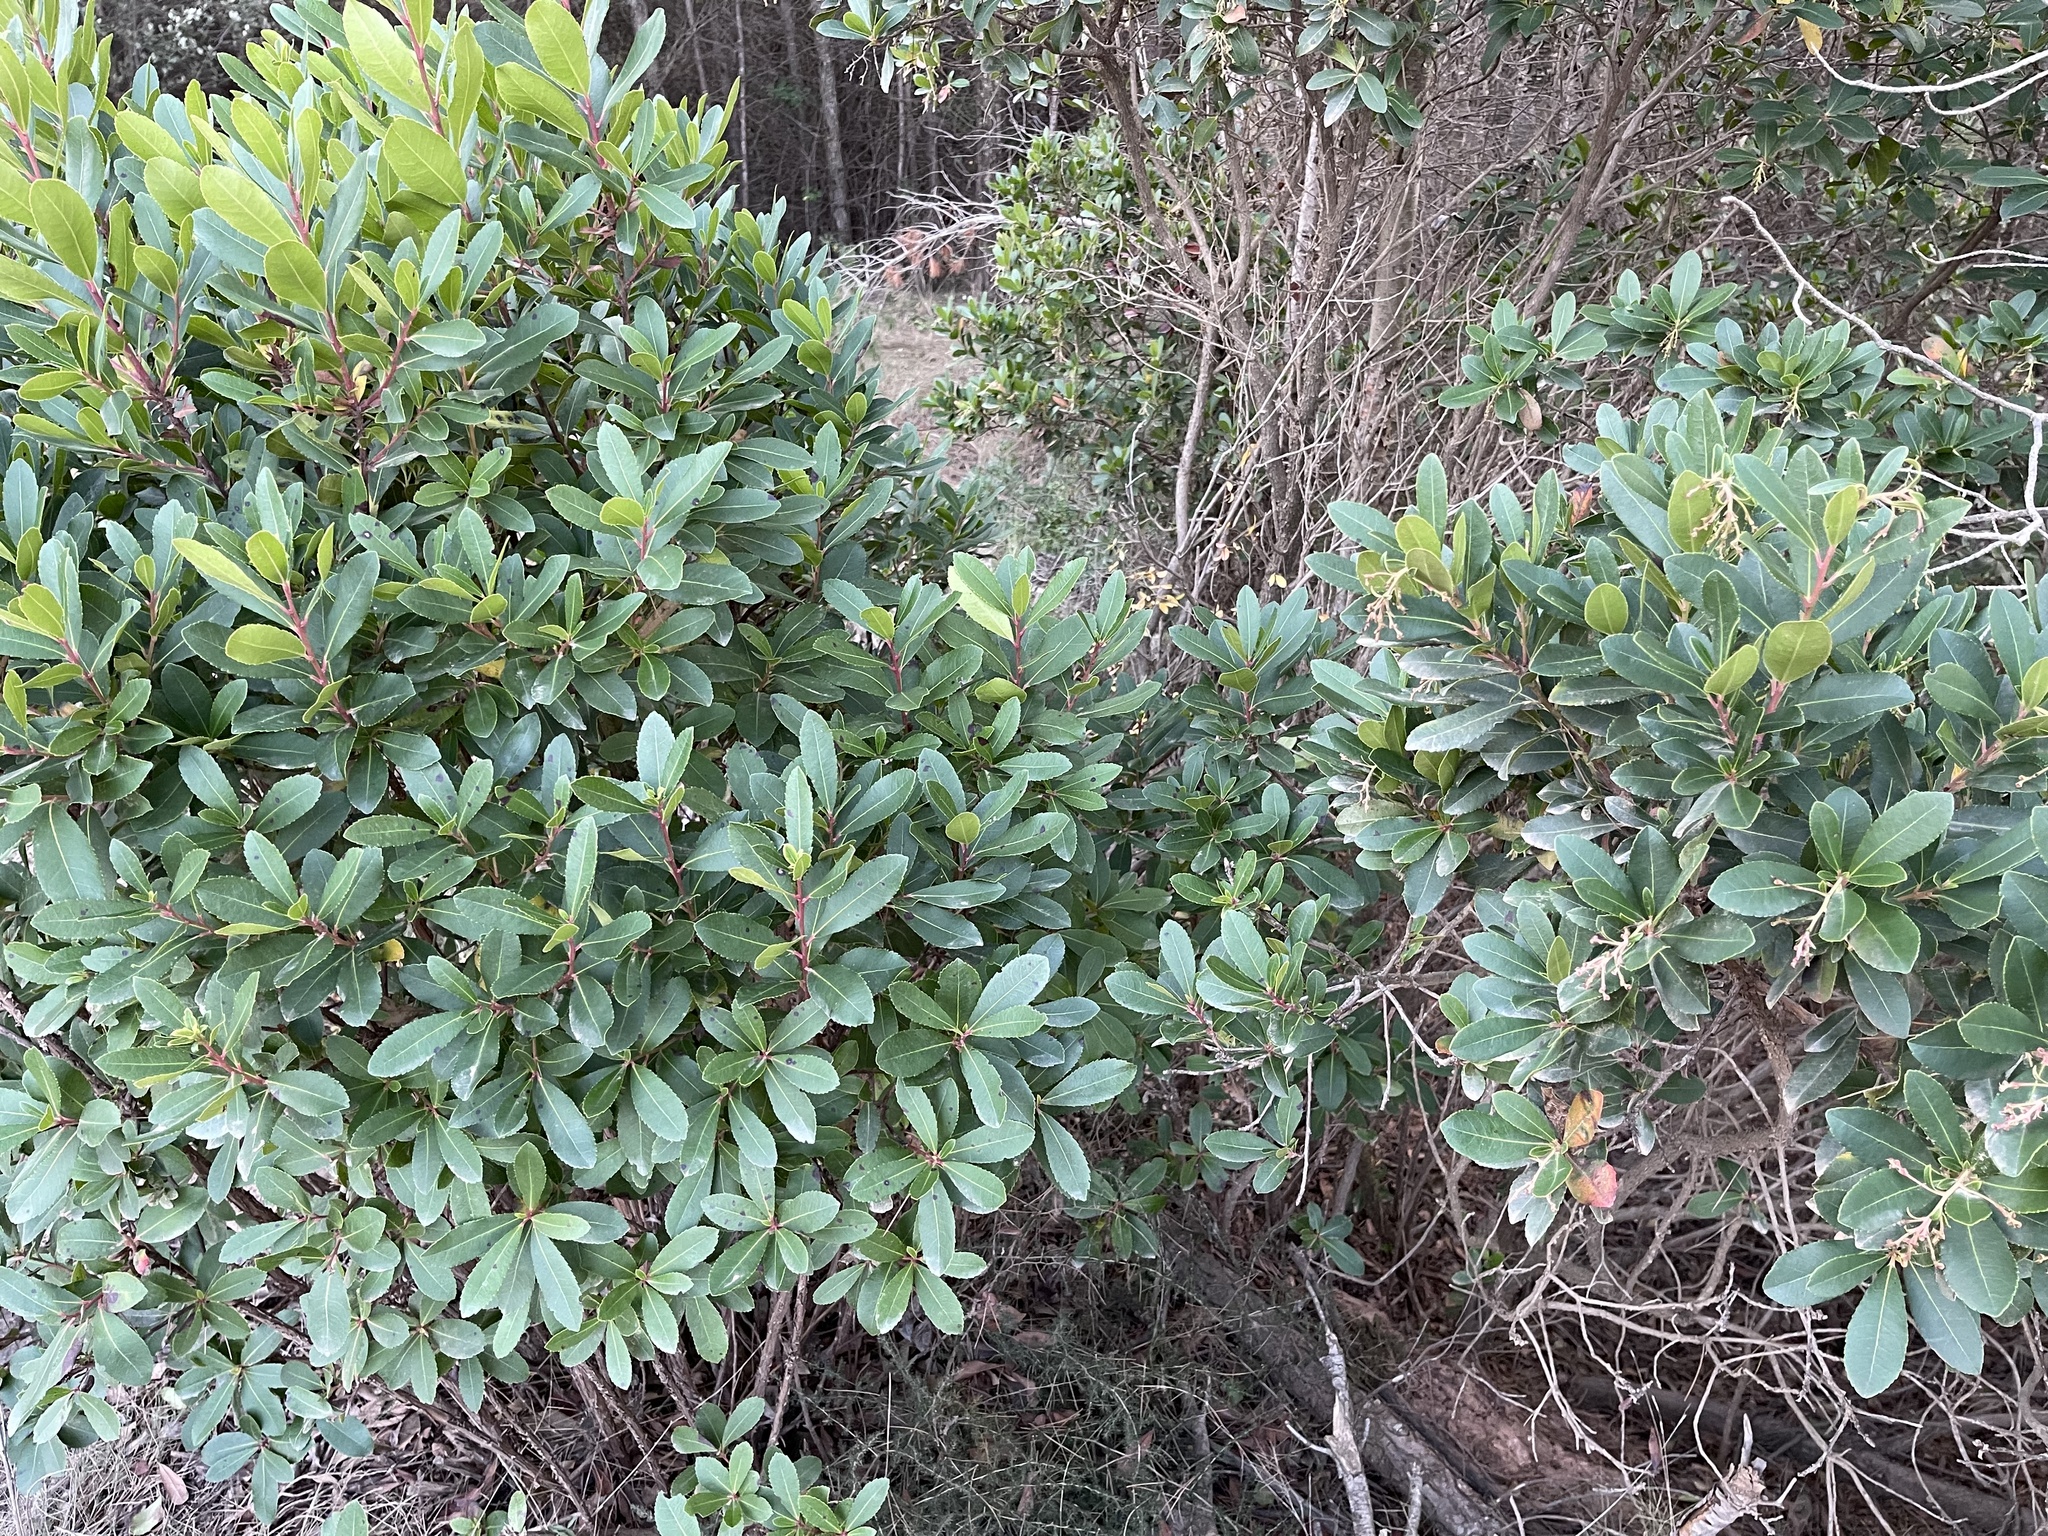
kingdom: Plantae
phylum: Tracheophyta
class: Magnoliopsida
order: Ericales
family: Ericaceae
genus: Arbutus
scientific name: Arbutus unedo
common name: Strawberry-tree
